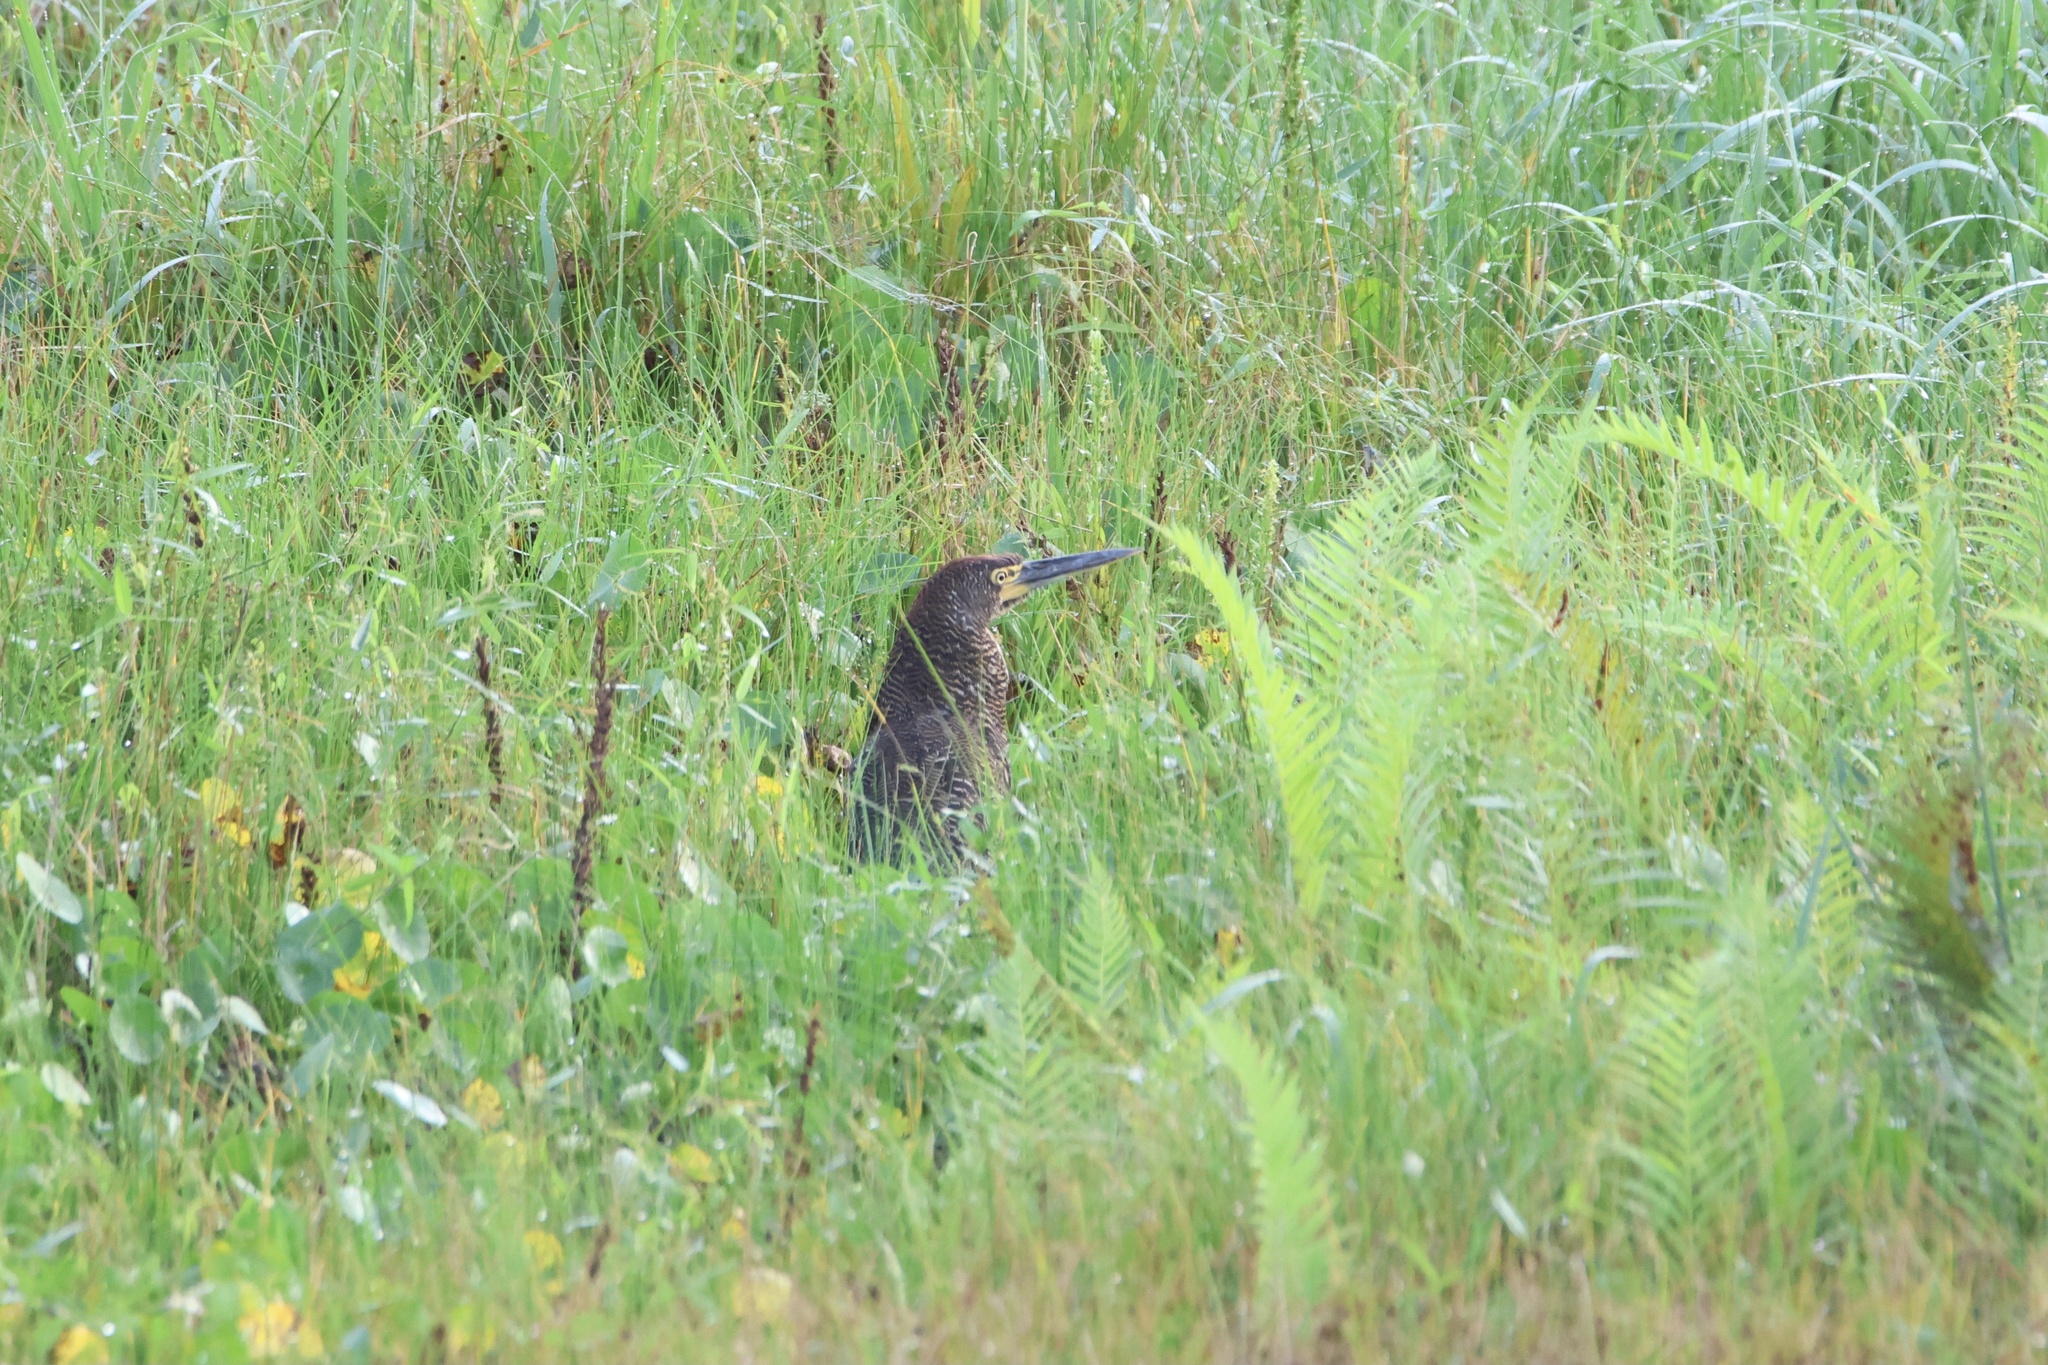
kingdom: Animalia
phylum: Chordata
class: Aves
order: Pelecaniformes
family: Ardeidae
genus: Tigrisoma
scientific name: Tigrisoma lineatum
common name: Rufescent tiger-heron
